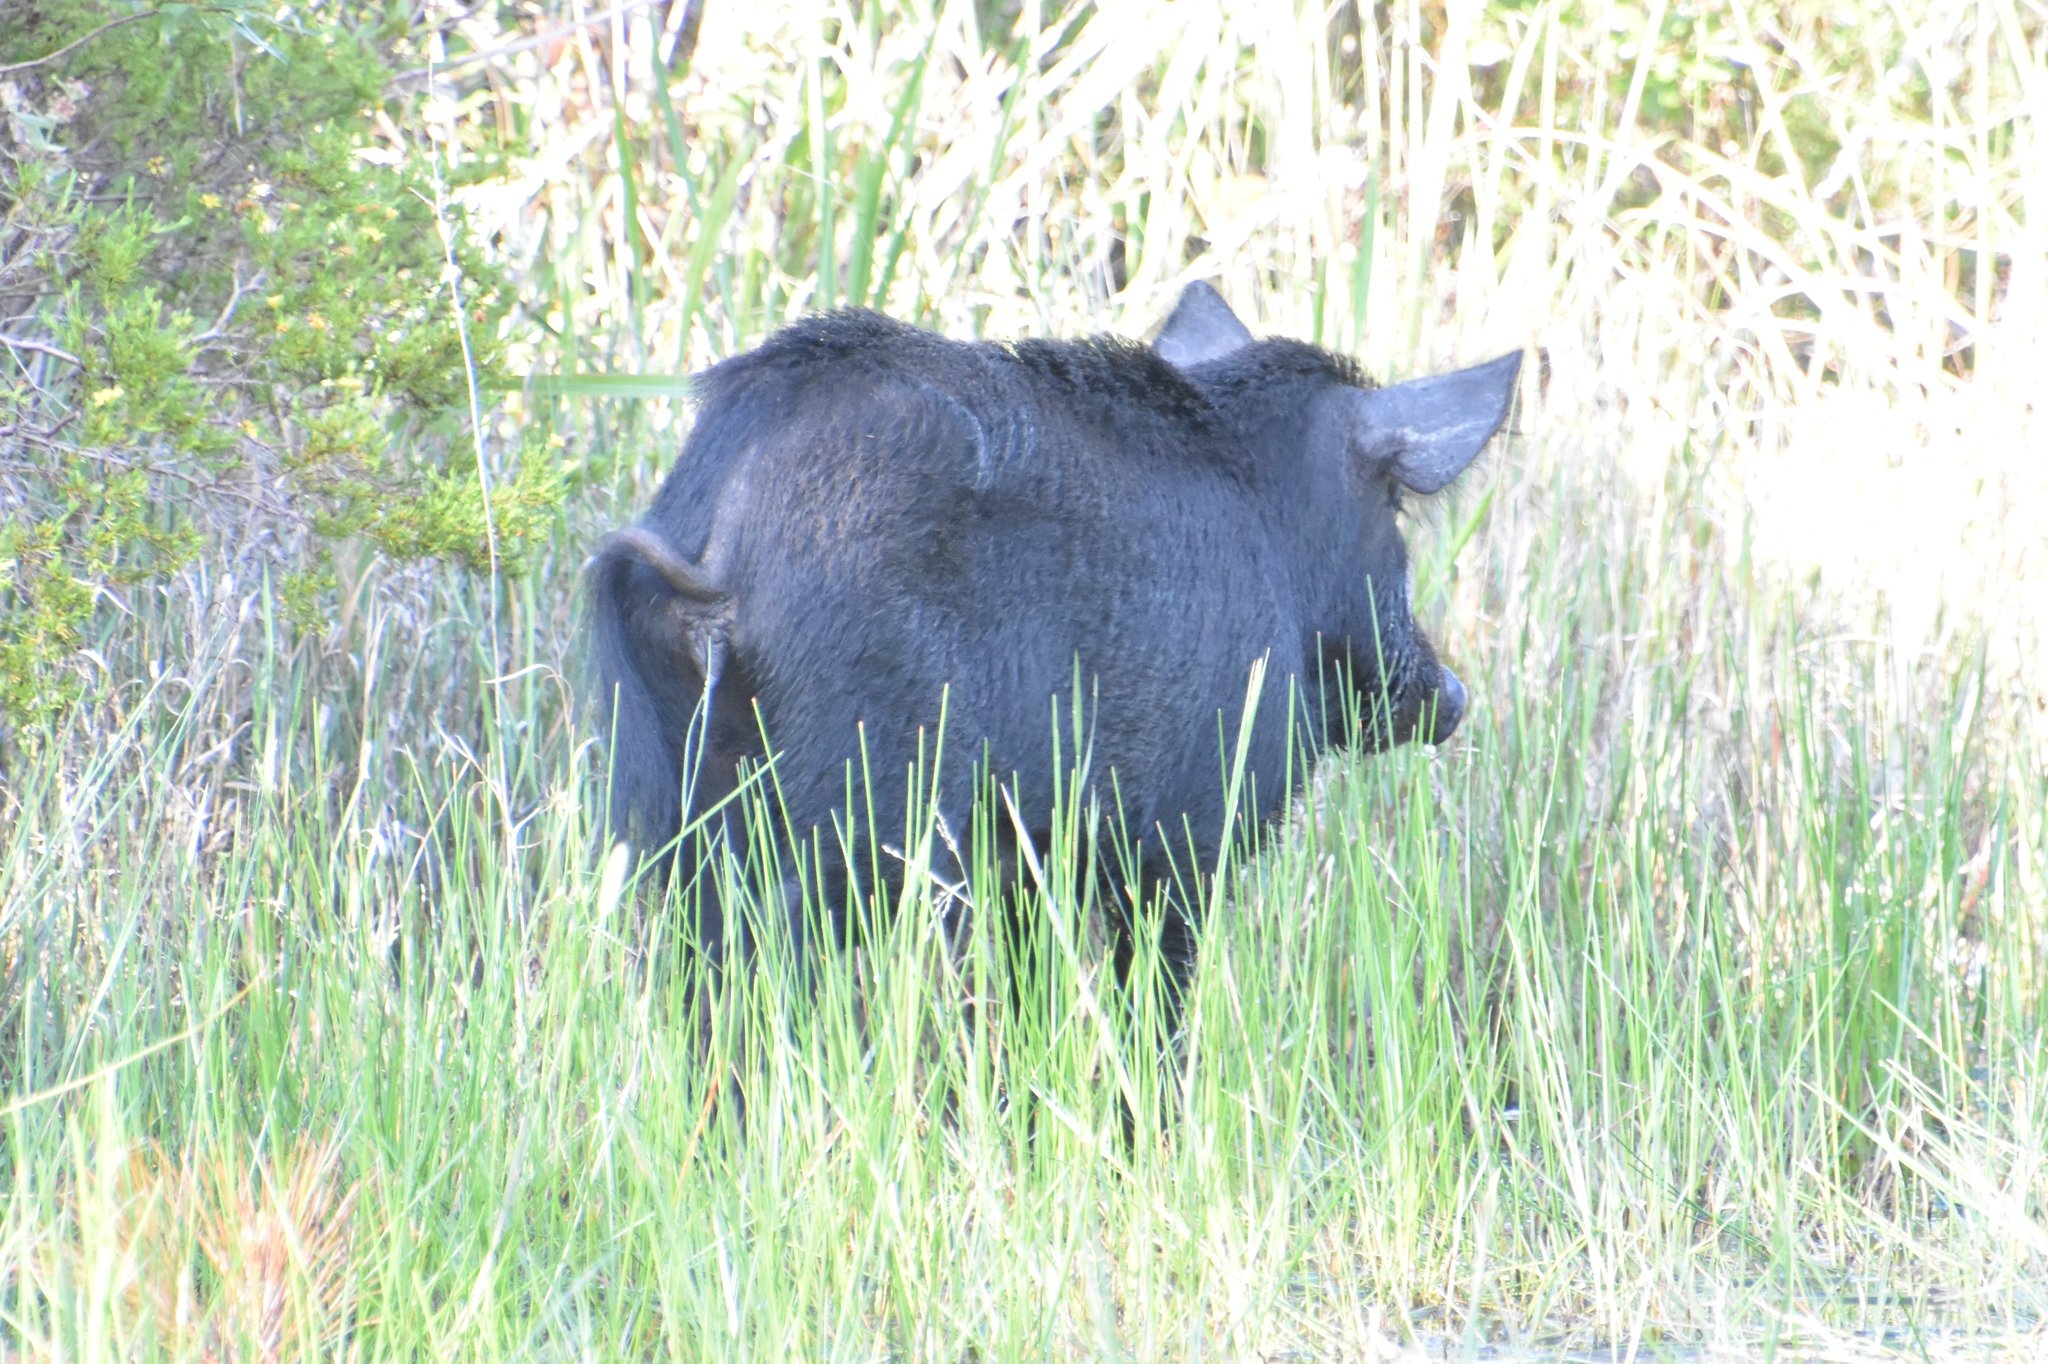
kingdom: Animalia
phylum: Chordata
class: Mammalia
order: Artiodactyla
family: Suidae
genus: Sus
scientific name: Sus scrofa
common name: Wild boar
